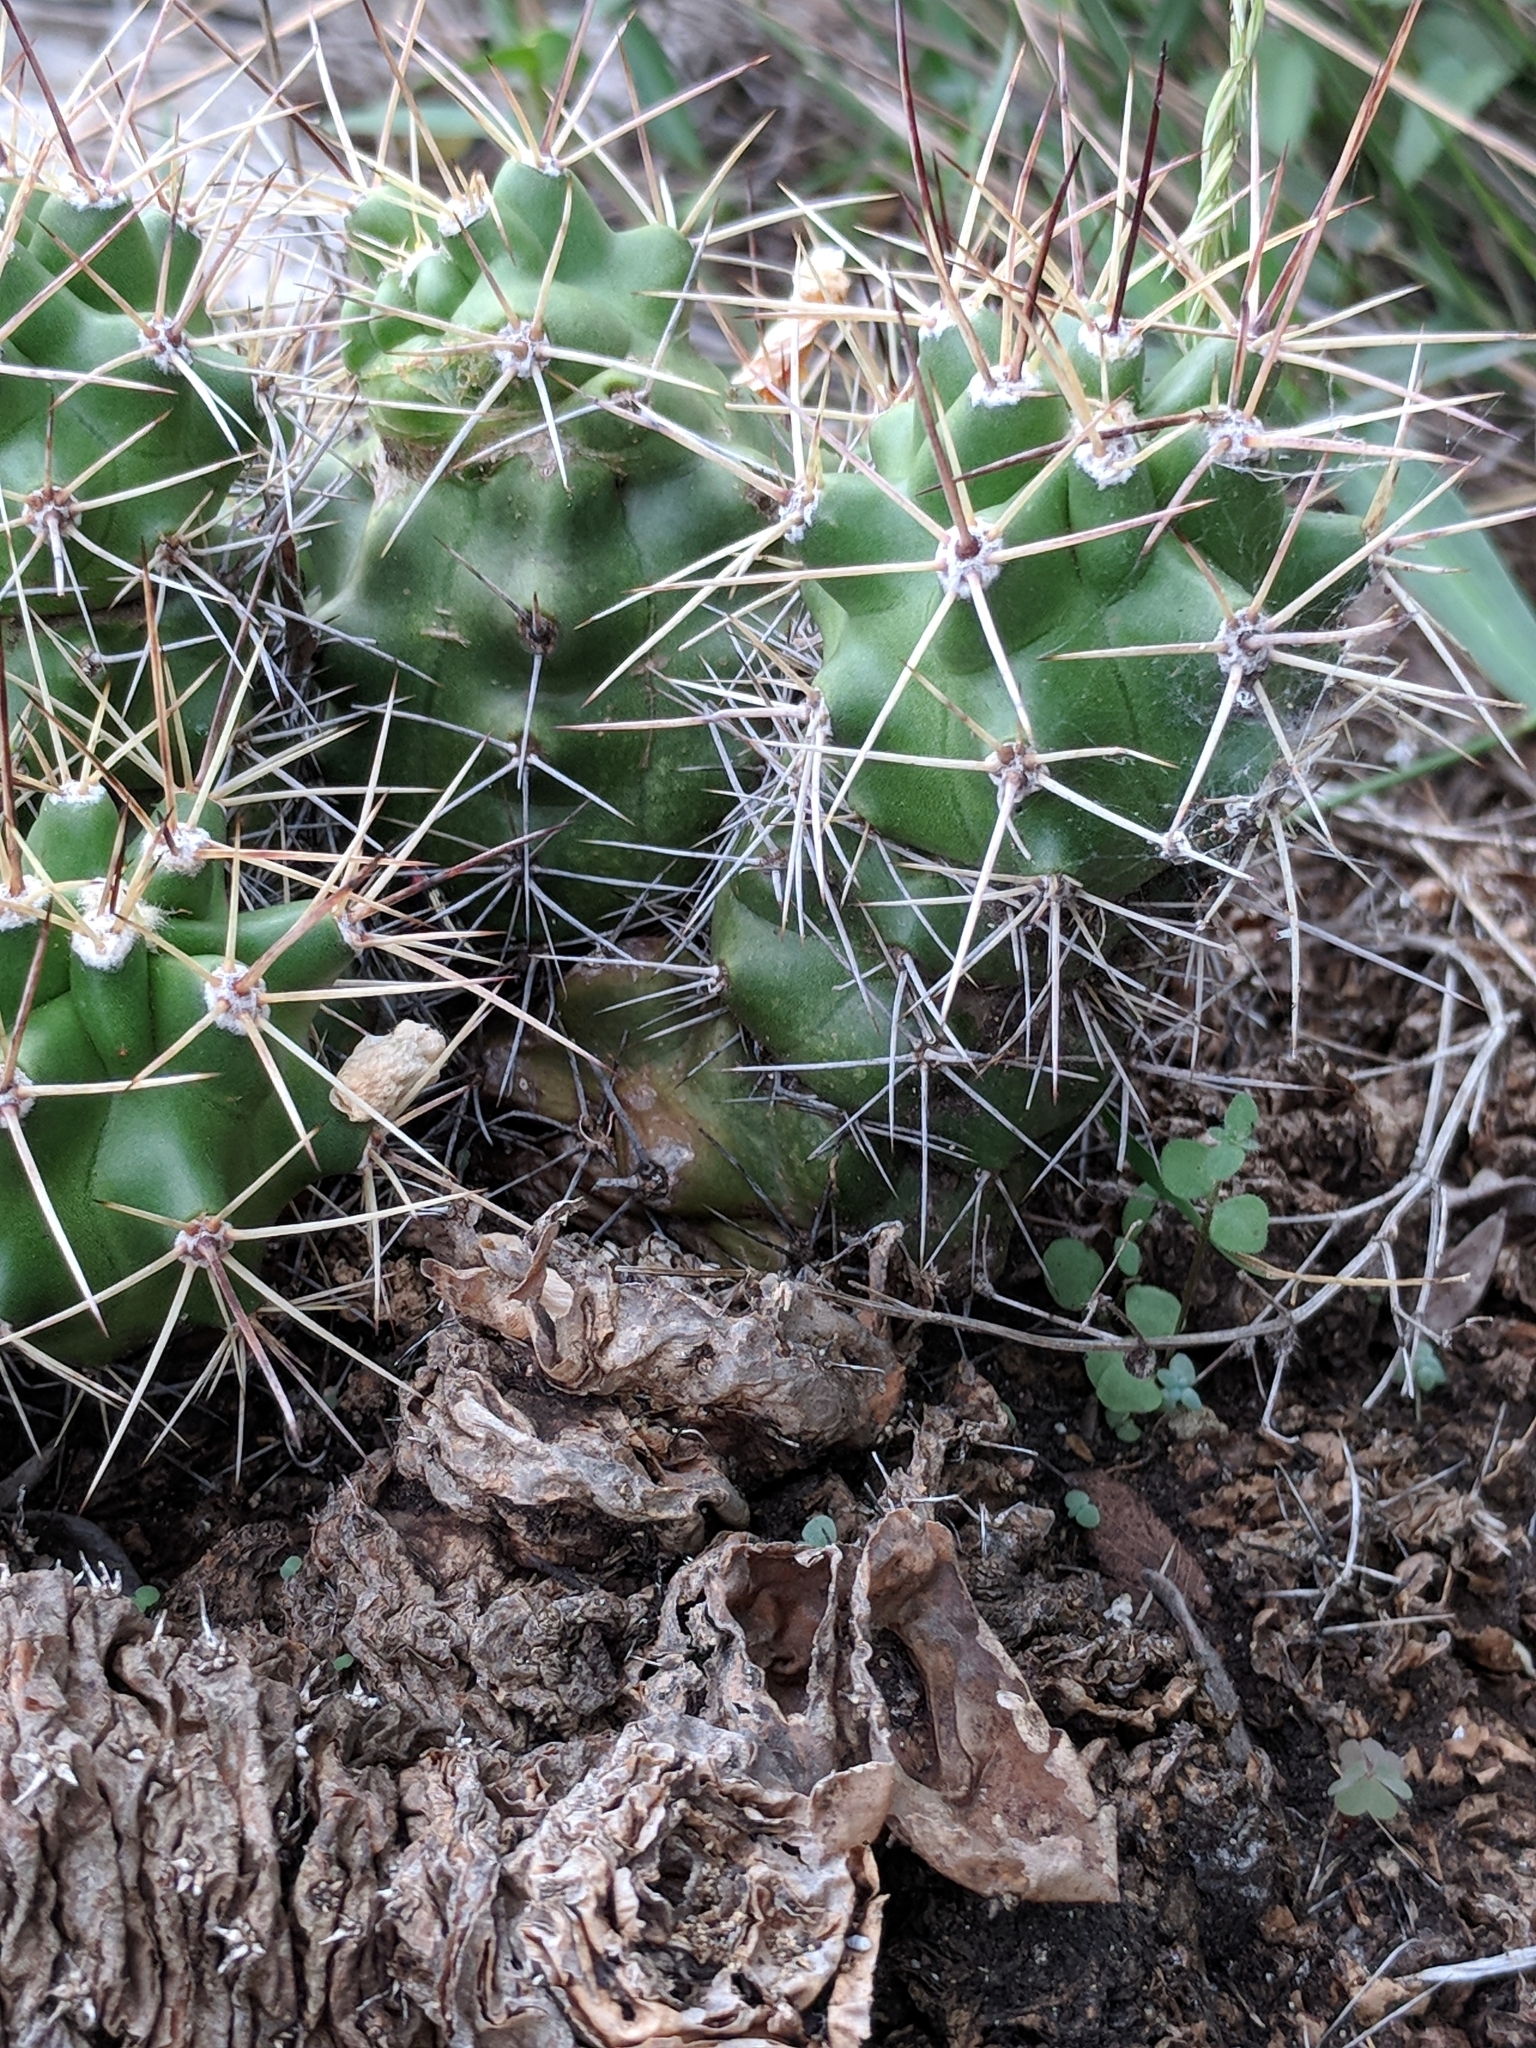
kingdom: Plantae
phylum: Tracheophyta
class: Magnoliopsida
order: Caryophyllales
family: Cactaceae
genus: Echinocereus
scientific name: Echinocereus coccineus
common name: Scarlet hedgehog cactus
